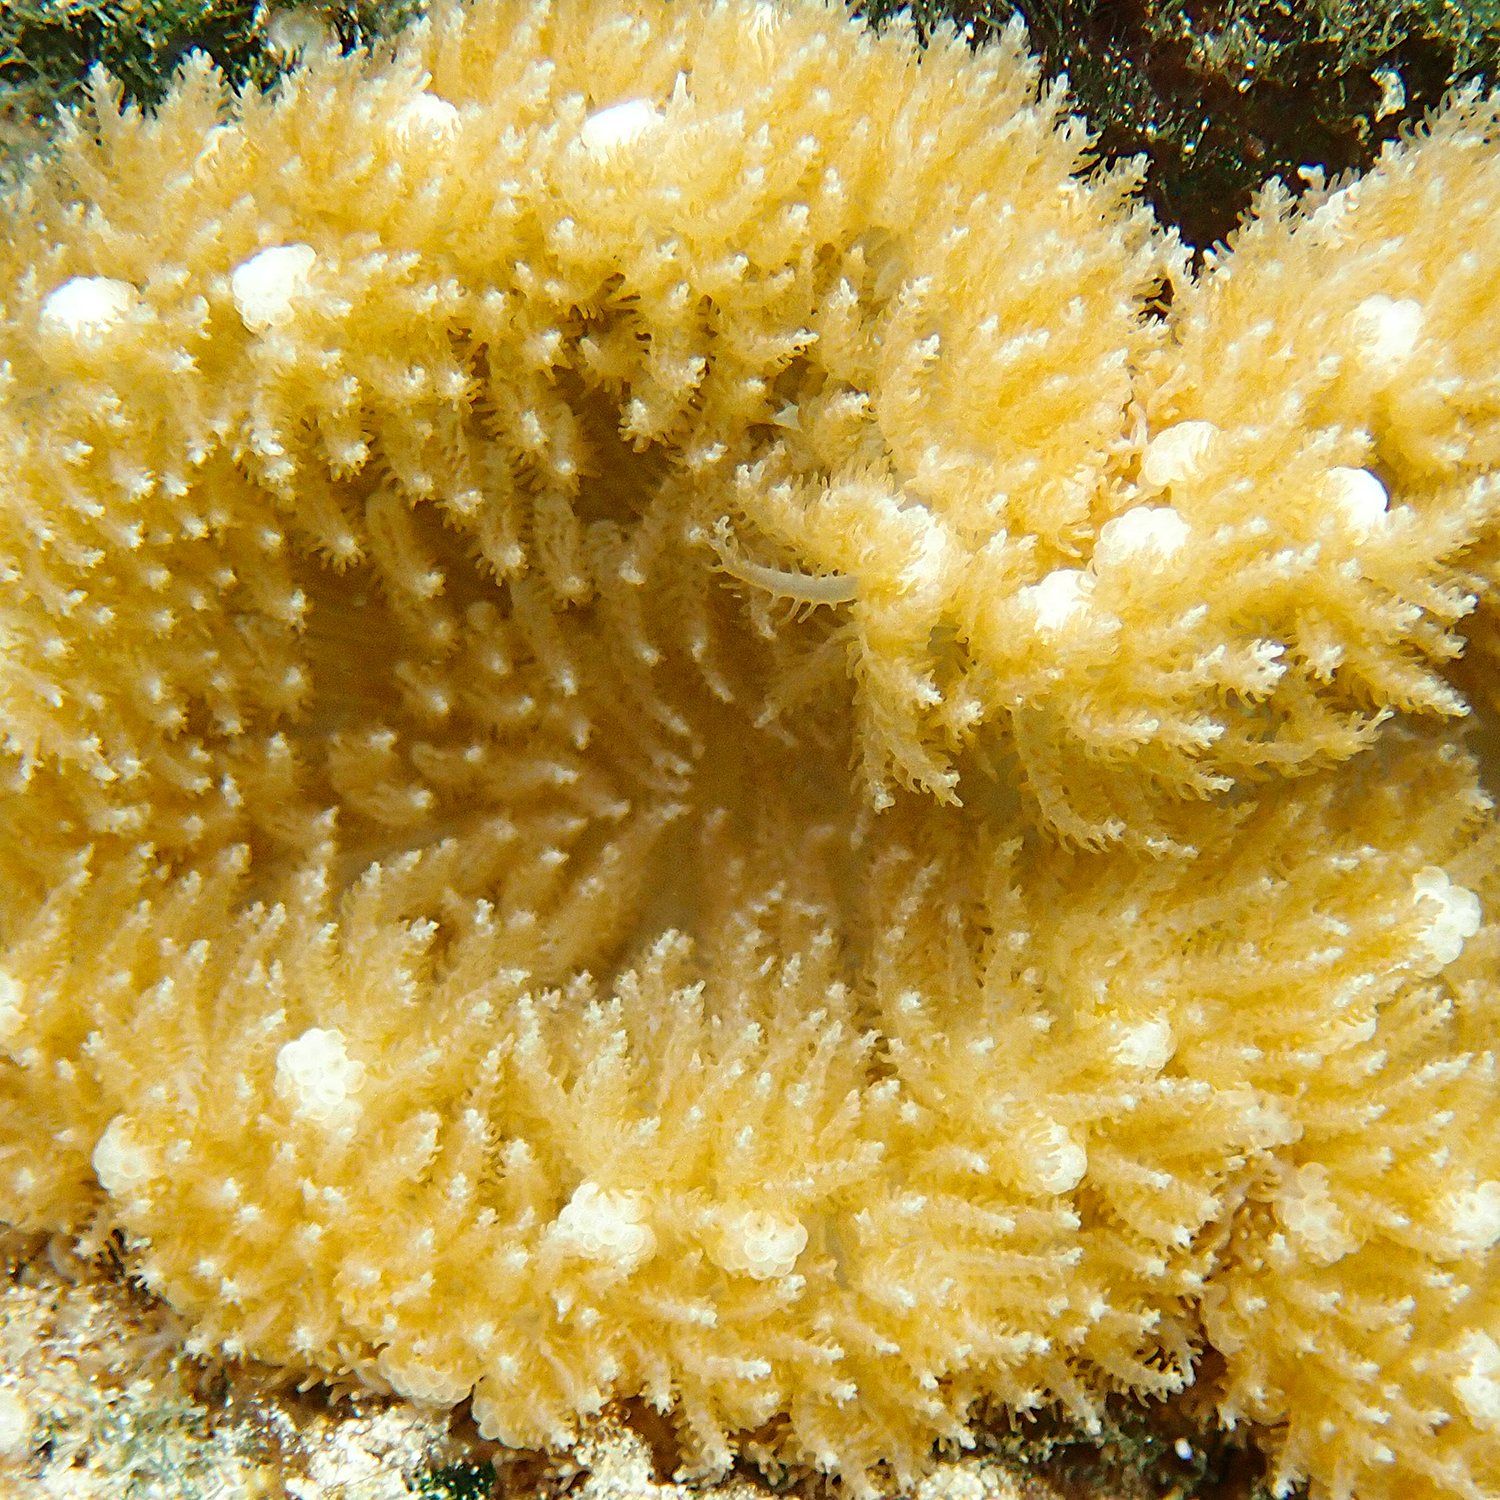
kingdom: Animalia
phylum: Cnidaria
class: Anthozoa
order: Actiniaria
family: Thalassianthidae
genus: Heterodactyla
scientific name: Heterodactyla hemprichii
